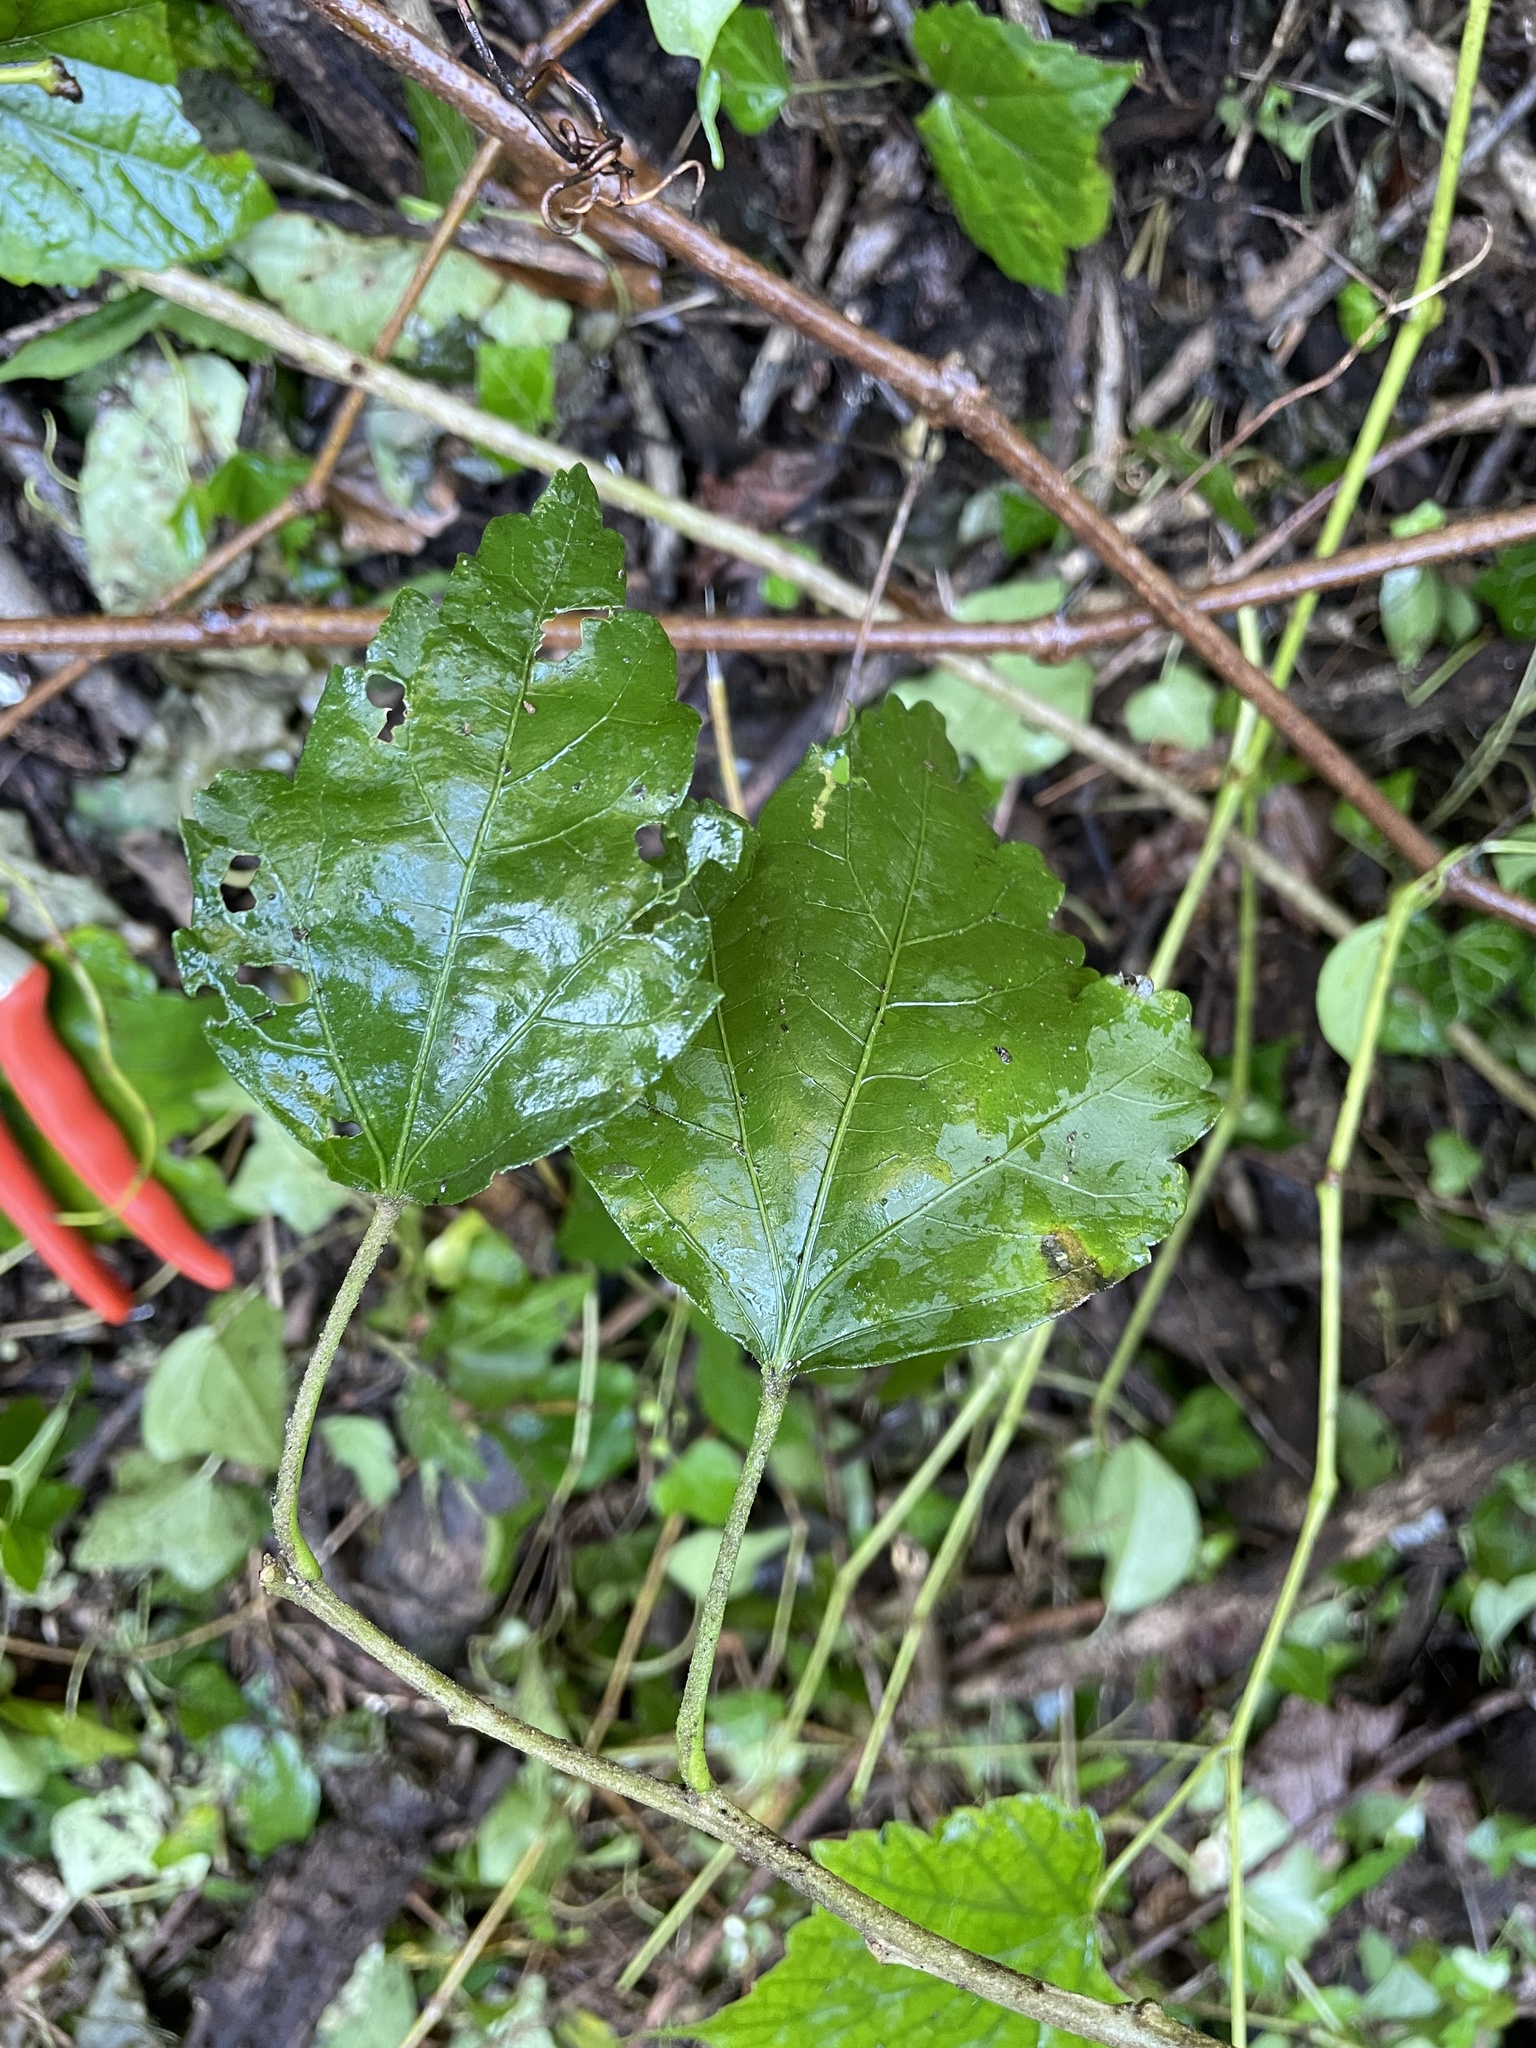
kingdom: Plantae
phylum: Tracheophyta
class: Magnoliopsida
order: Malvales
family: Malvaceae
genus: Hibiscus
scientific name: Hibiscus syriacus
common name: Syrian ketmia
